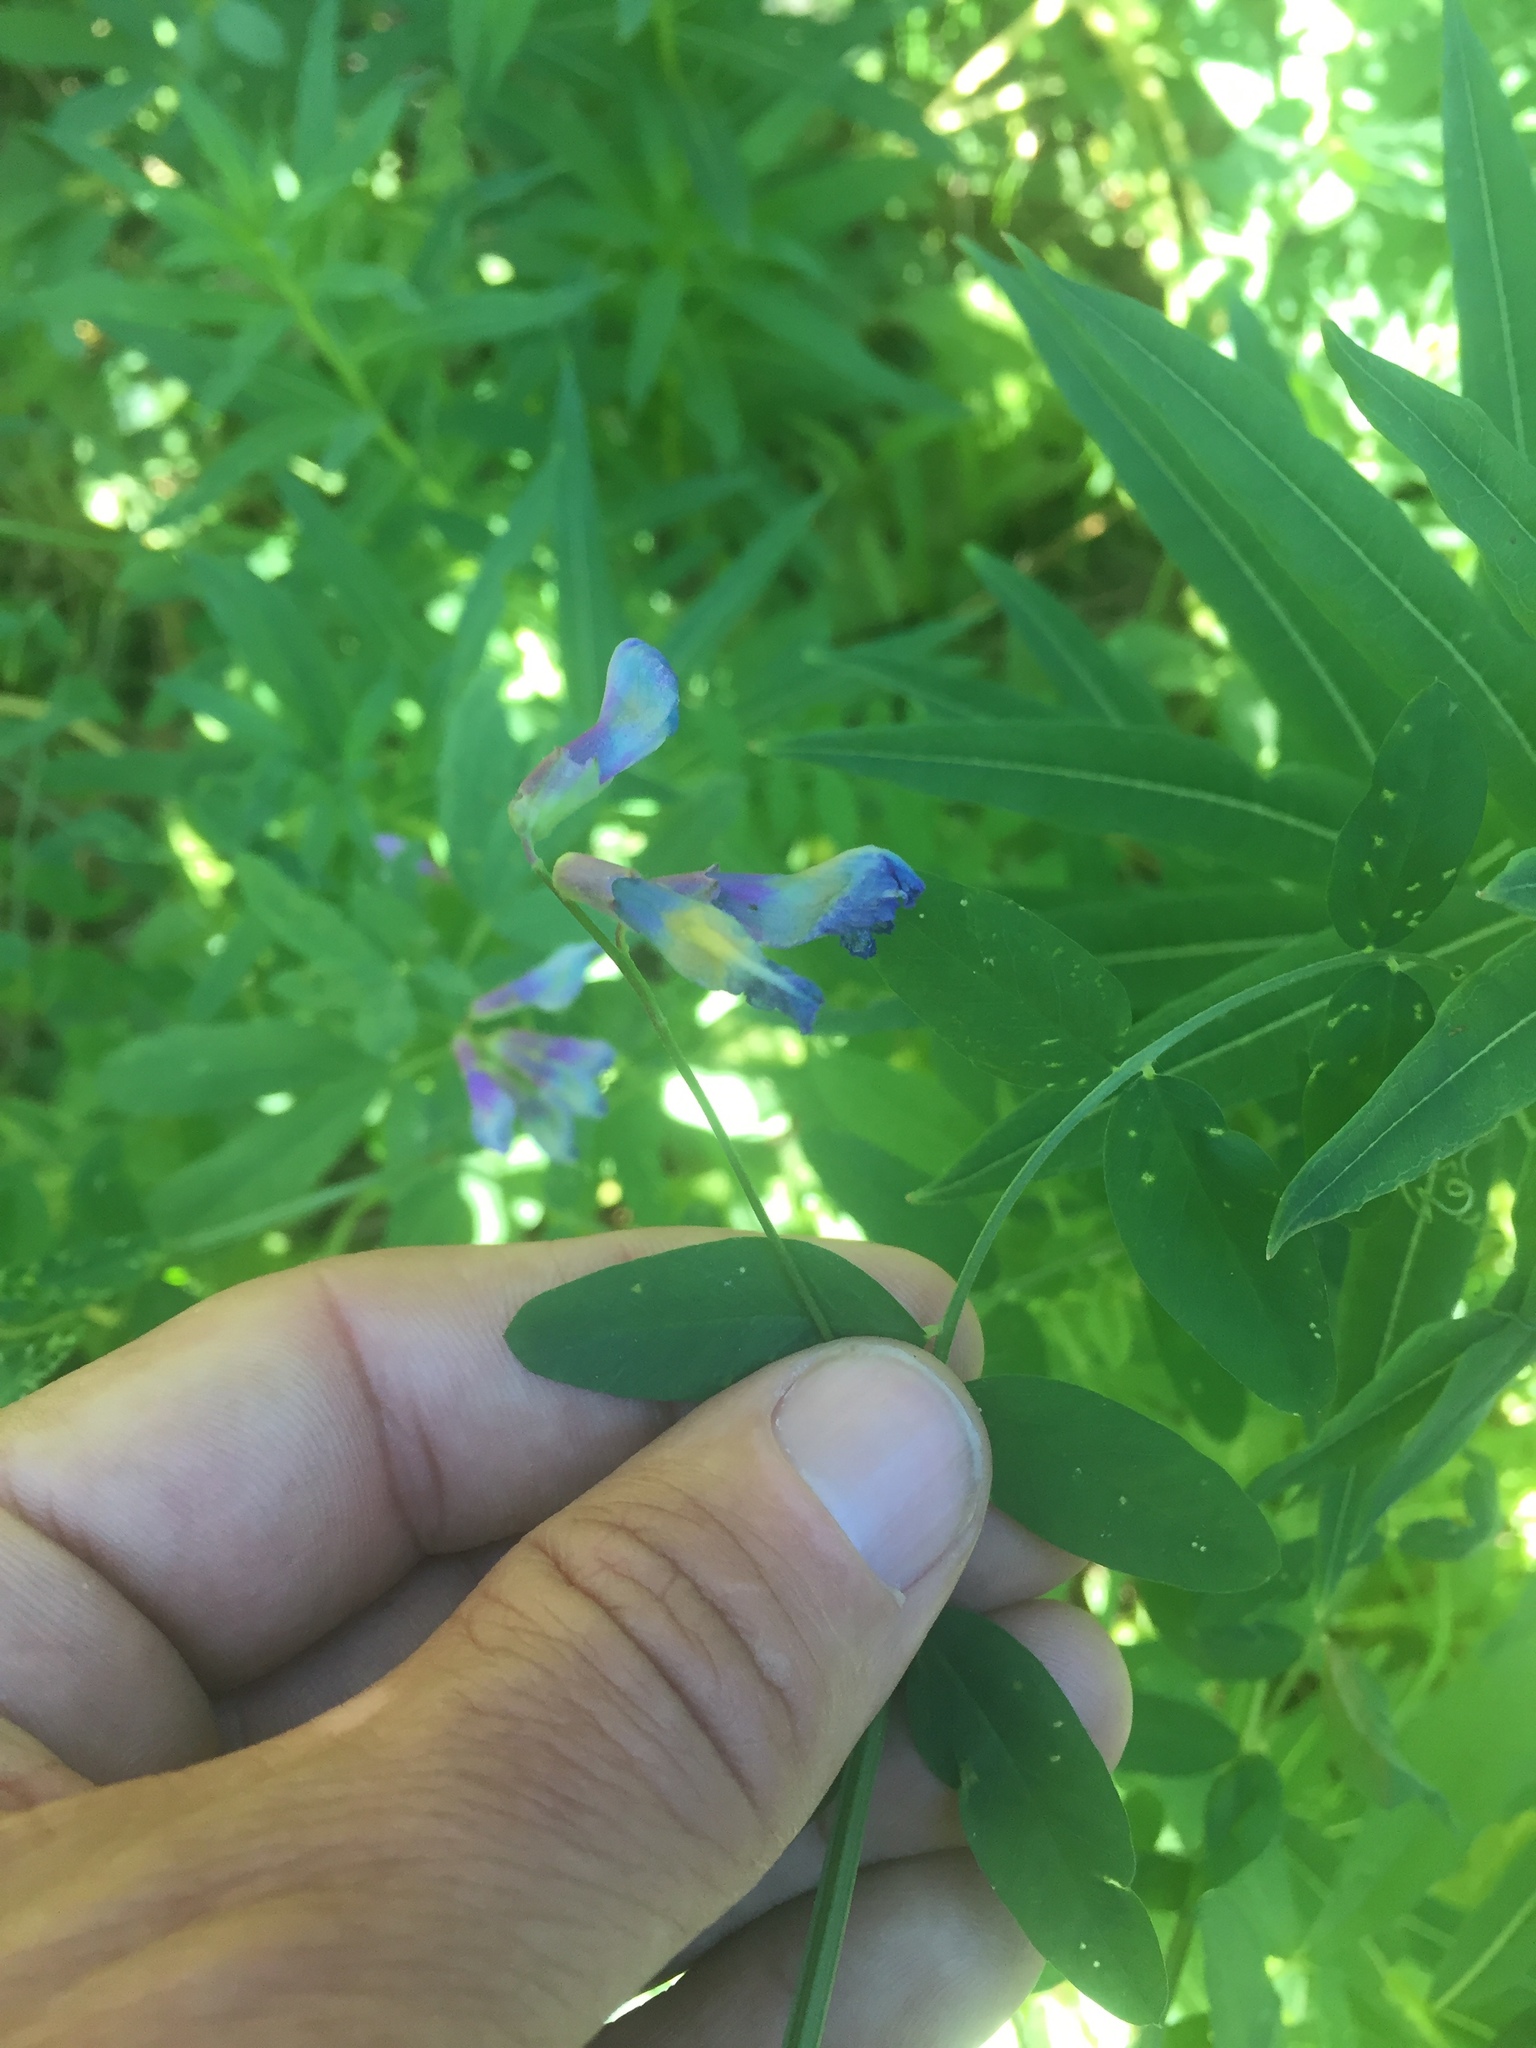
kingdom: Plantae
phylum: Tracheophyta
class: Magnoliopsida
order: Fabales
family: Fabaceae
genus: Vicia
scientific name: Vicia americana
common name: American vetch
